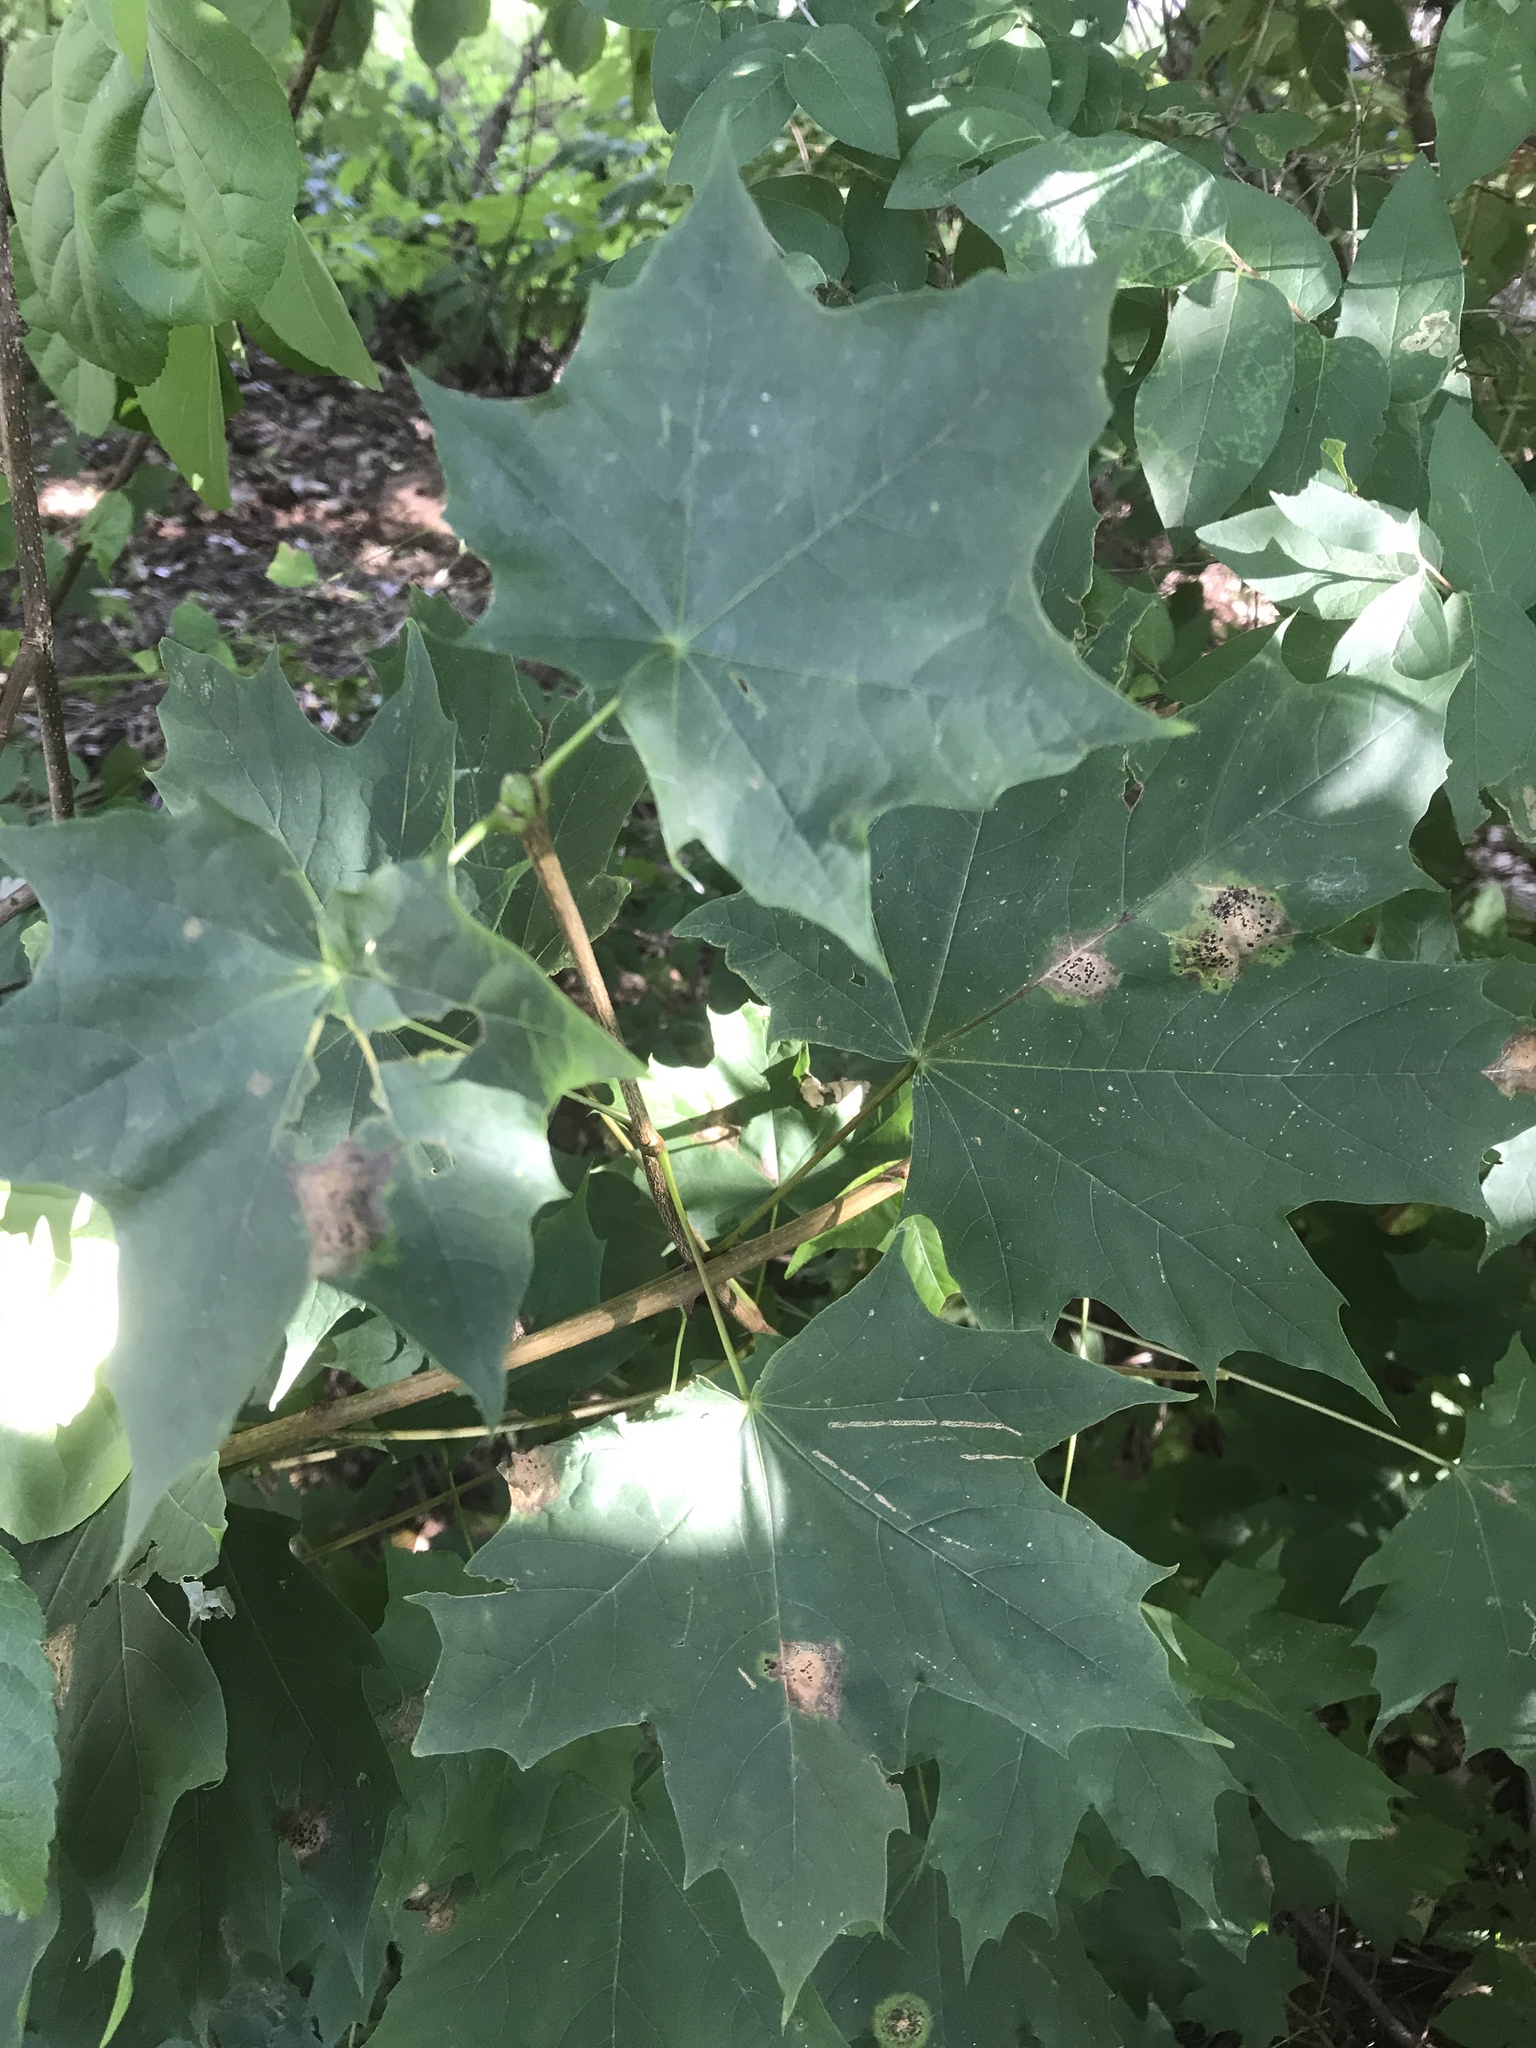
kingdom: Plantae
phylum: Tracheophyta
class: Magnoliopsida
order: Sapindales
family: Sapindaceae
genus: Acer
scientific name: Acer platanoides
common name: Norway maple
